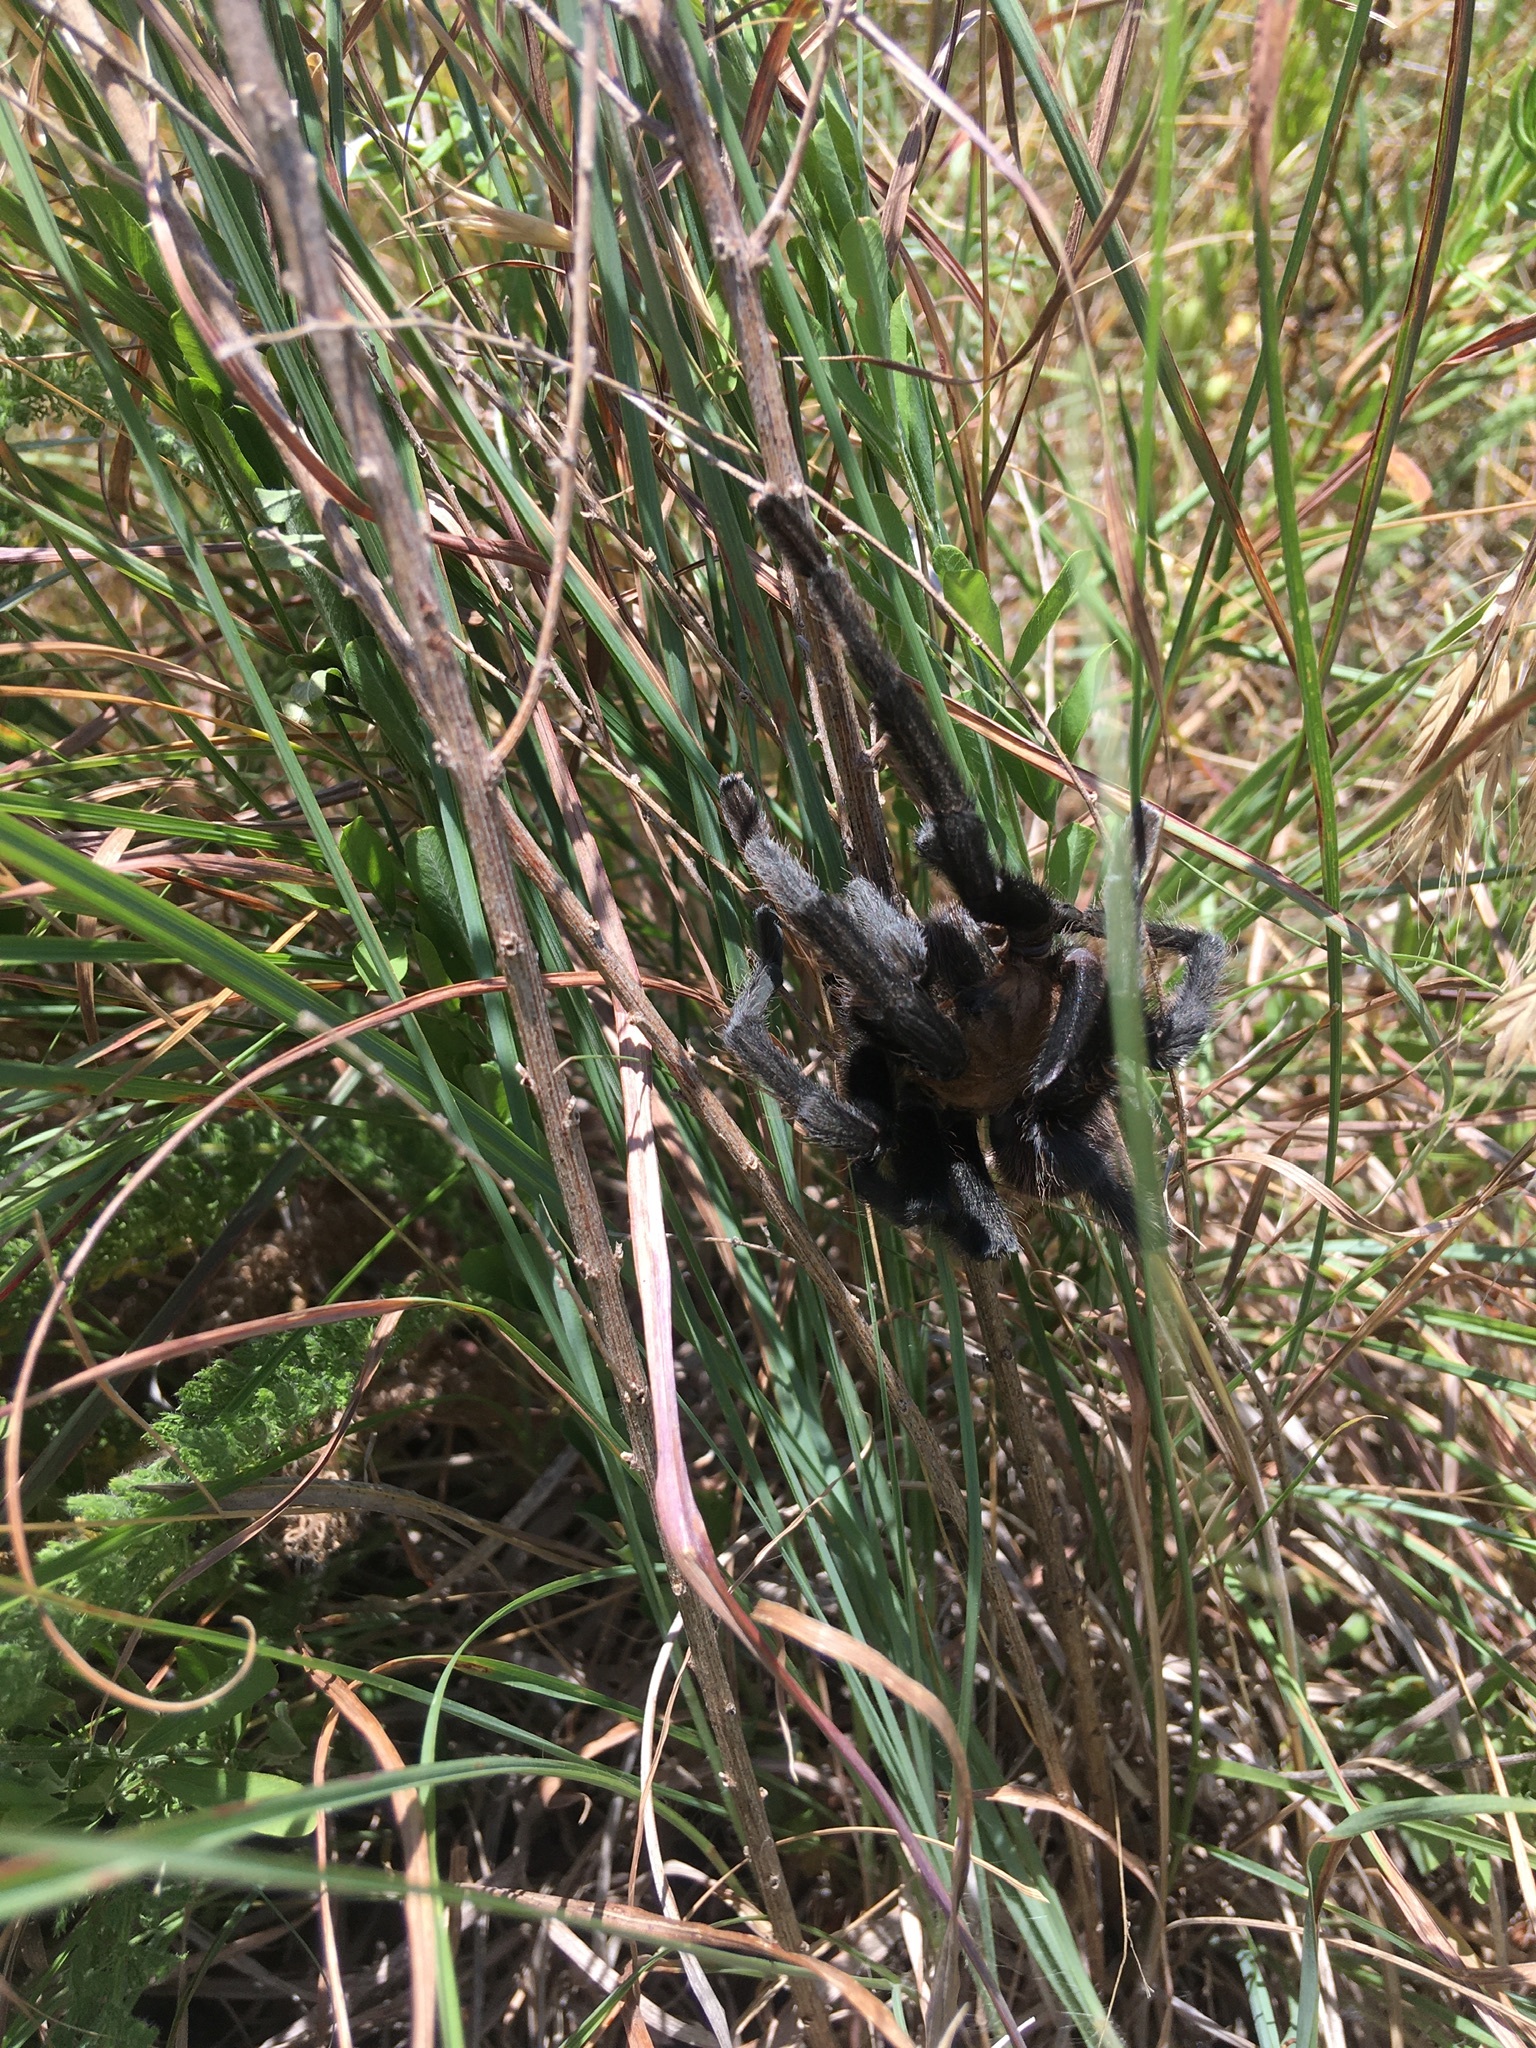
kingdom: Animalia
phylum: Arthropoda
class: Arachnida
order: Araneae
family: Theraphosidae
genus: Aphonopelma
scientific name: Aphonopelma hentzi
